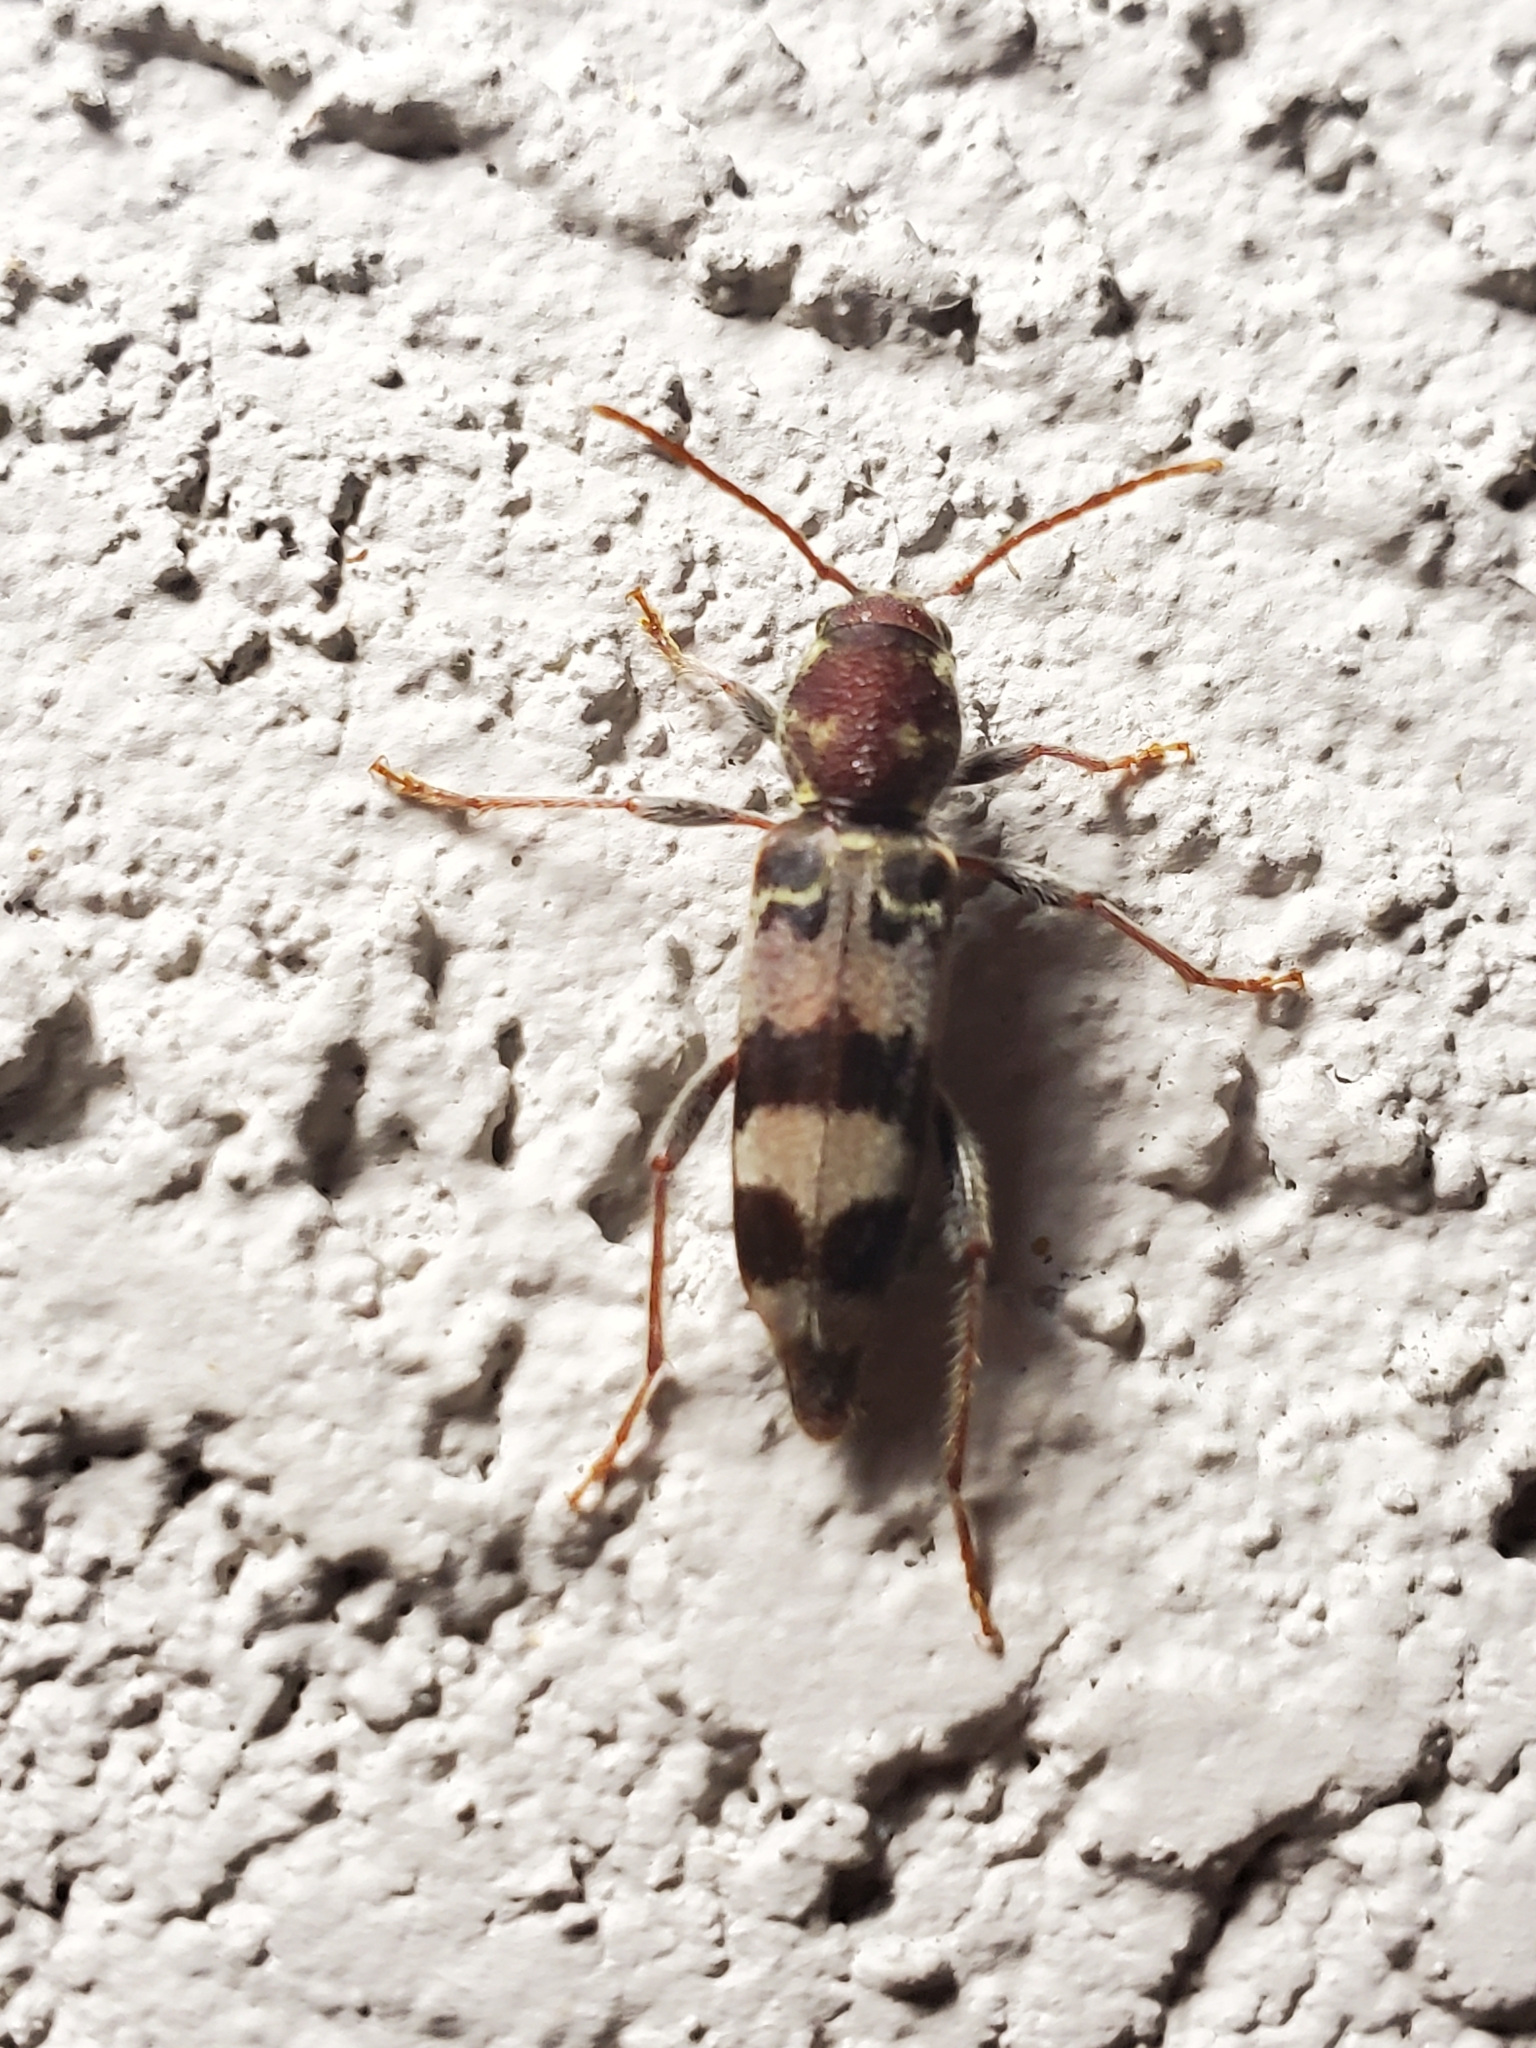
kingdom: Animalia
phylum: Arthropoda
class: Insecta
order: Coleoptera
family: Cerambycidae
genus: Xylotrechus
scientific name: Xylotrechus colonus
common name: Long-horned beetle
